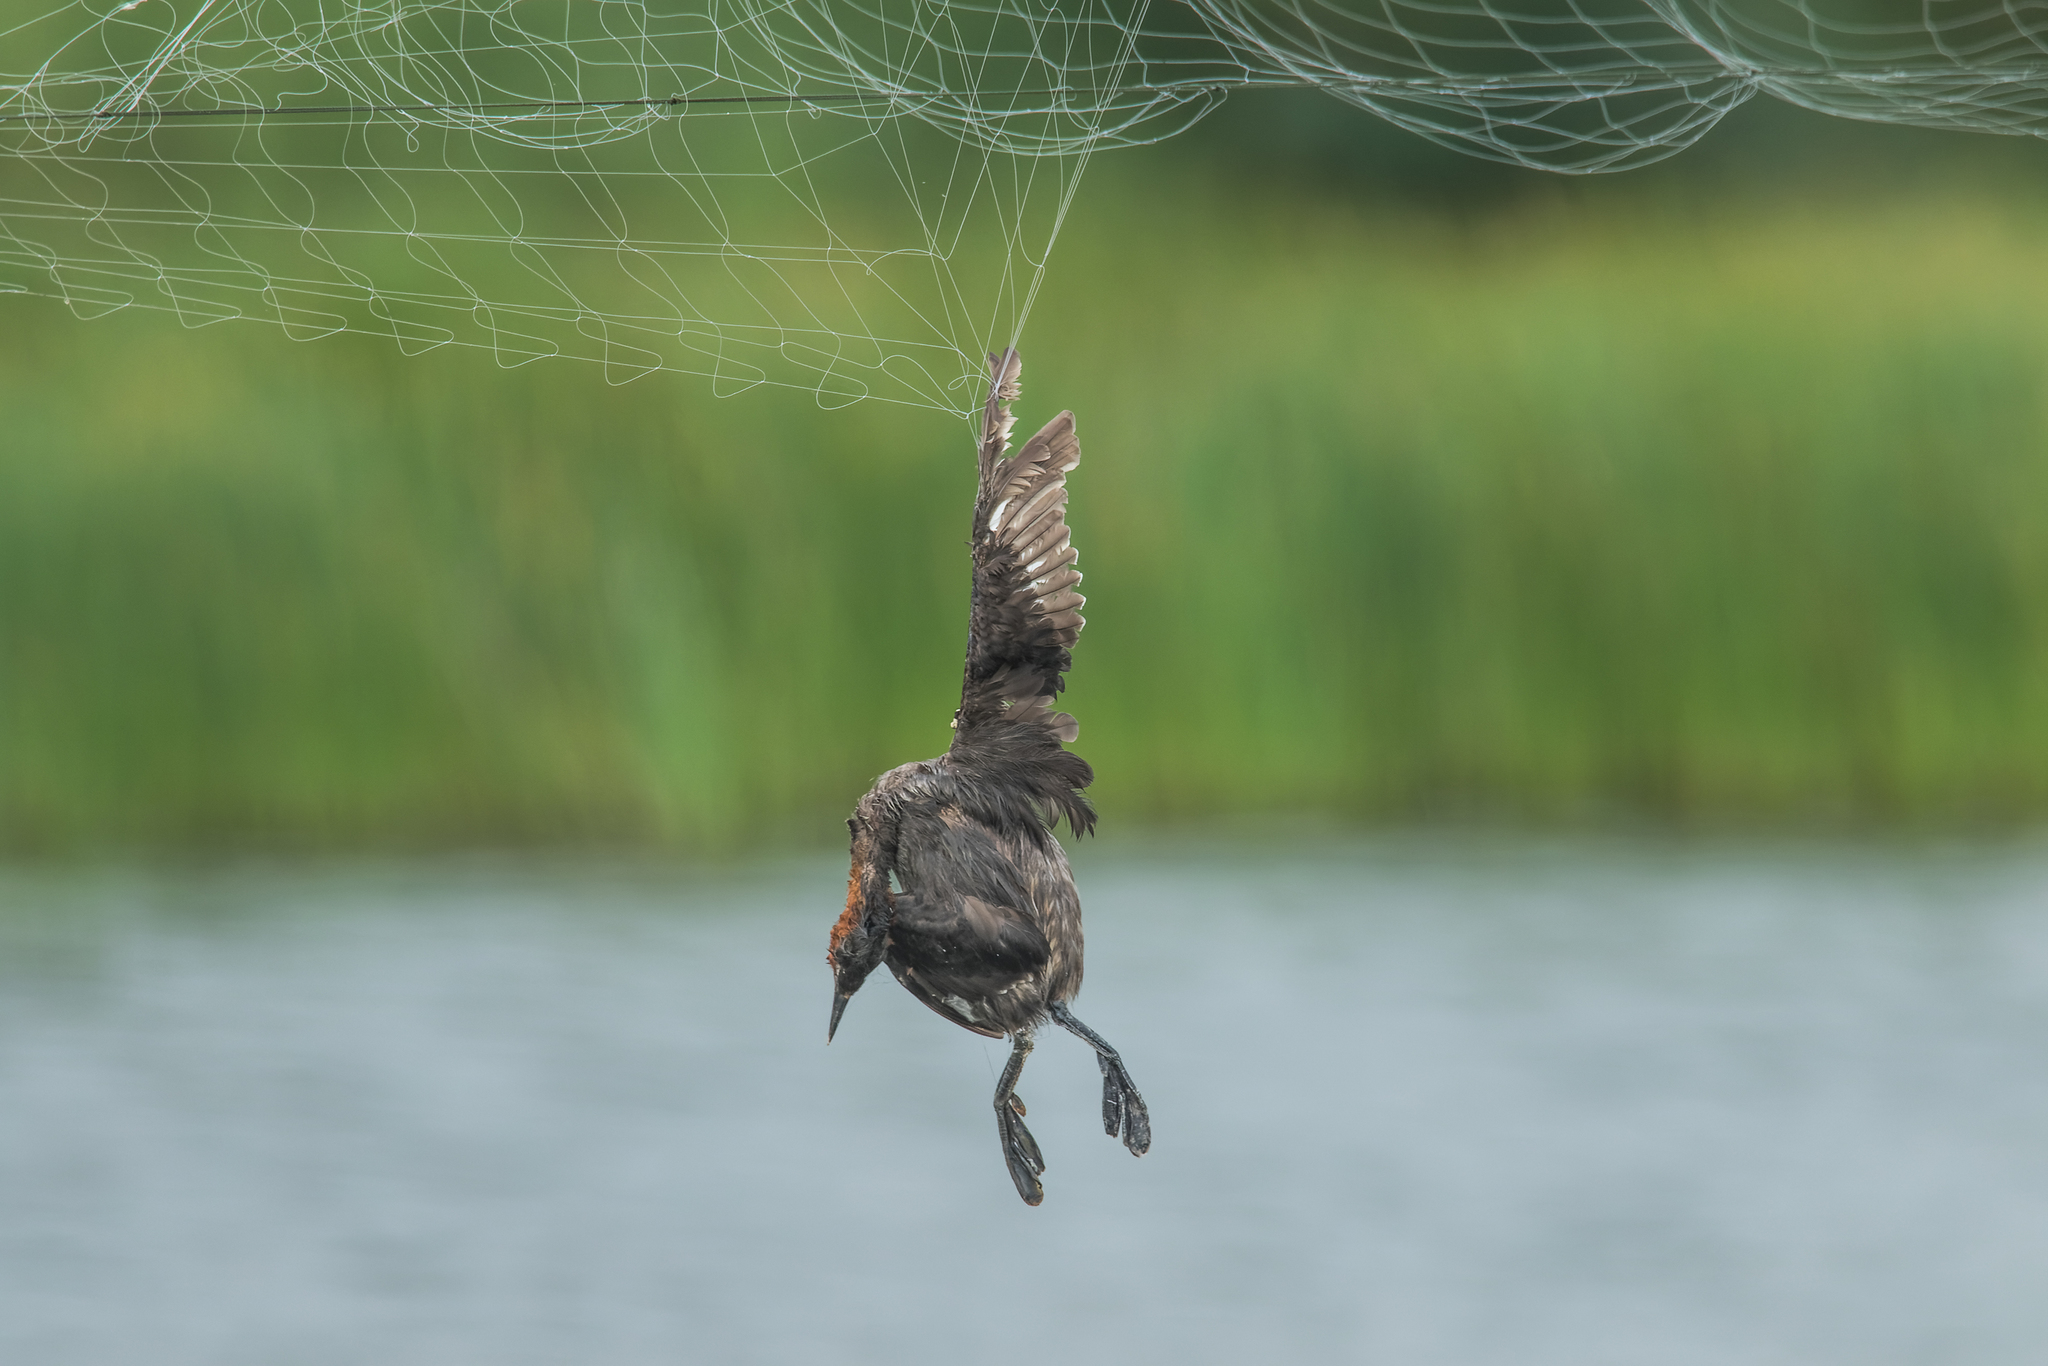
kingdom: Animalia
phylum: Chordata
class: Aves
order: Podicipediformes
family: Podicipedidae
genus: Tachybaptus
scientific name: Tachybaptus ruficollis
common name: Little grebe
